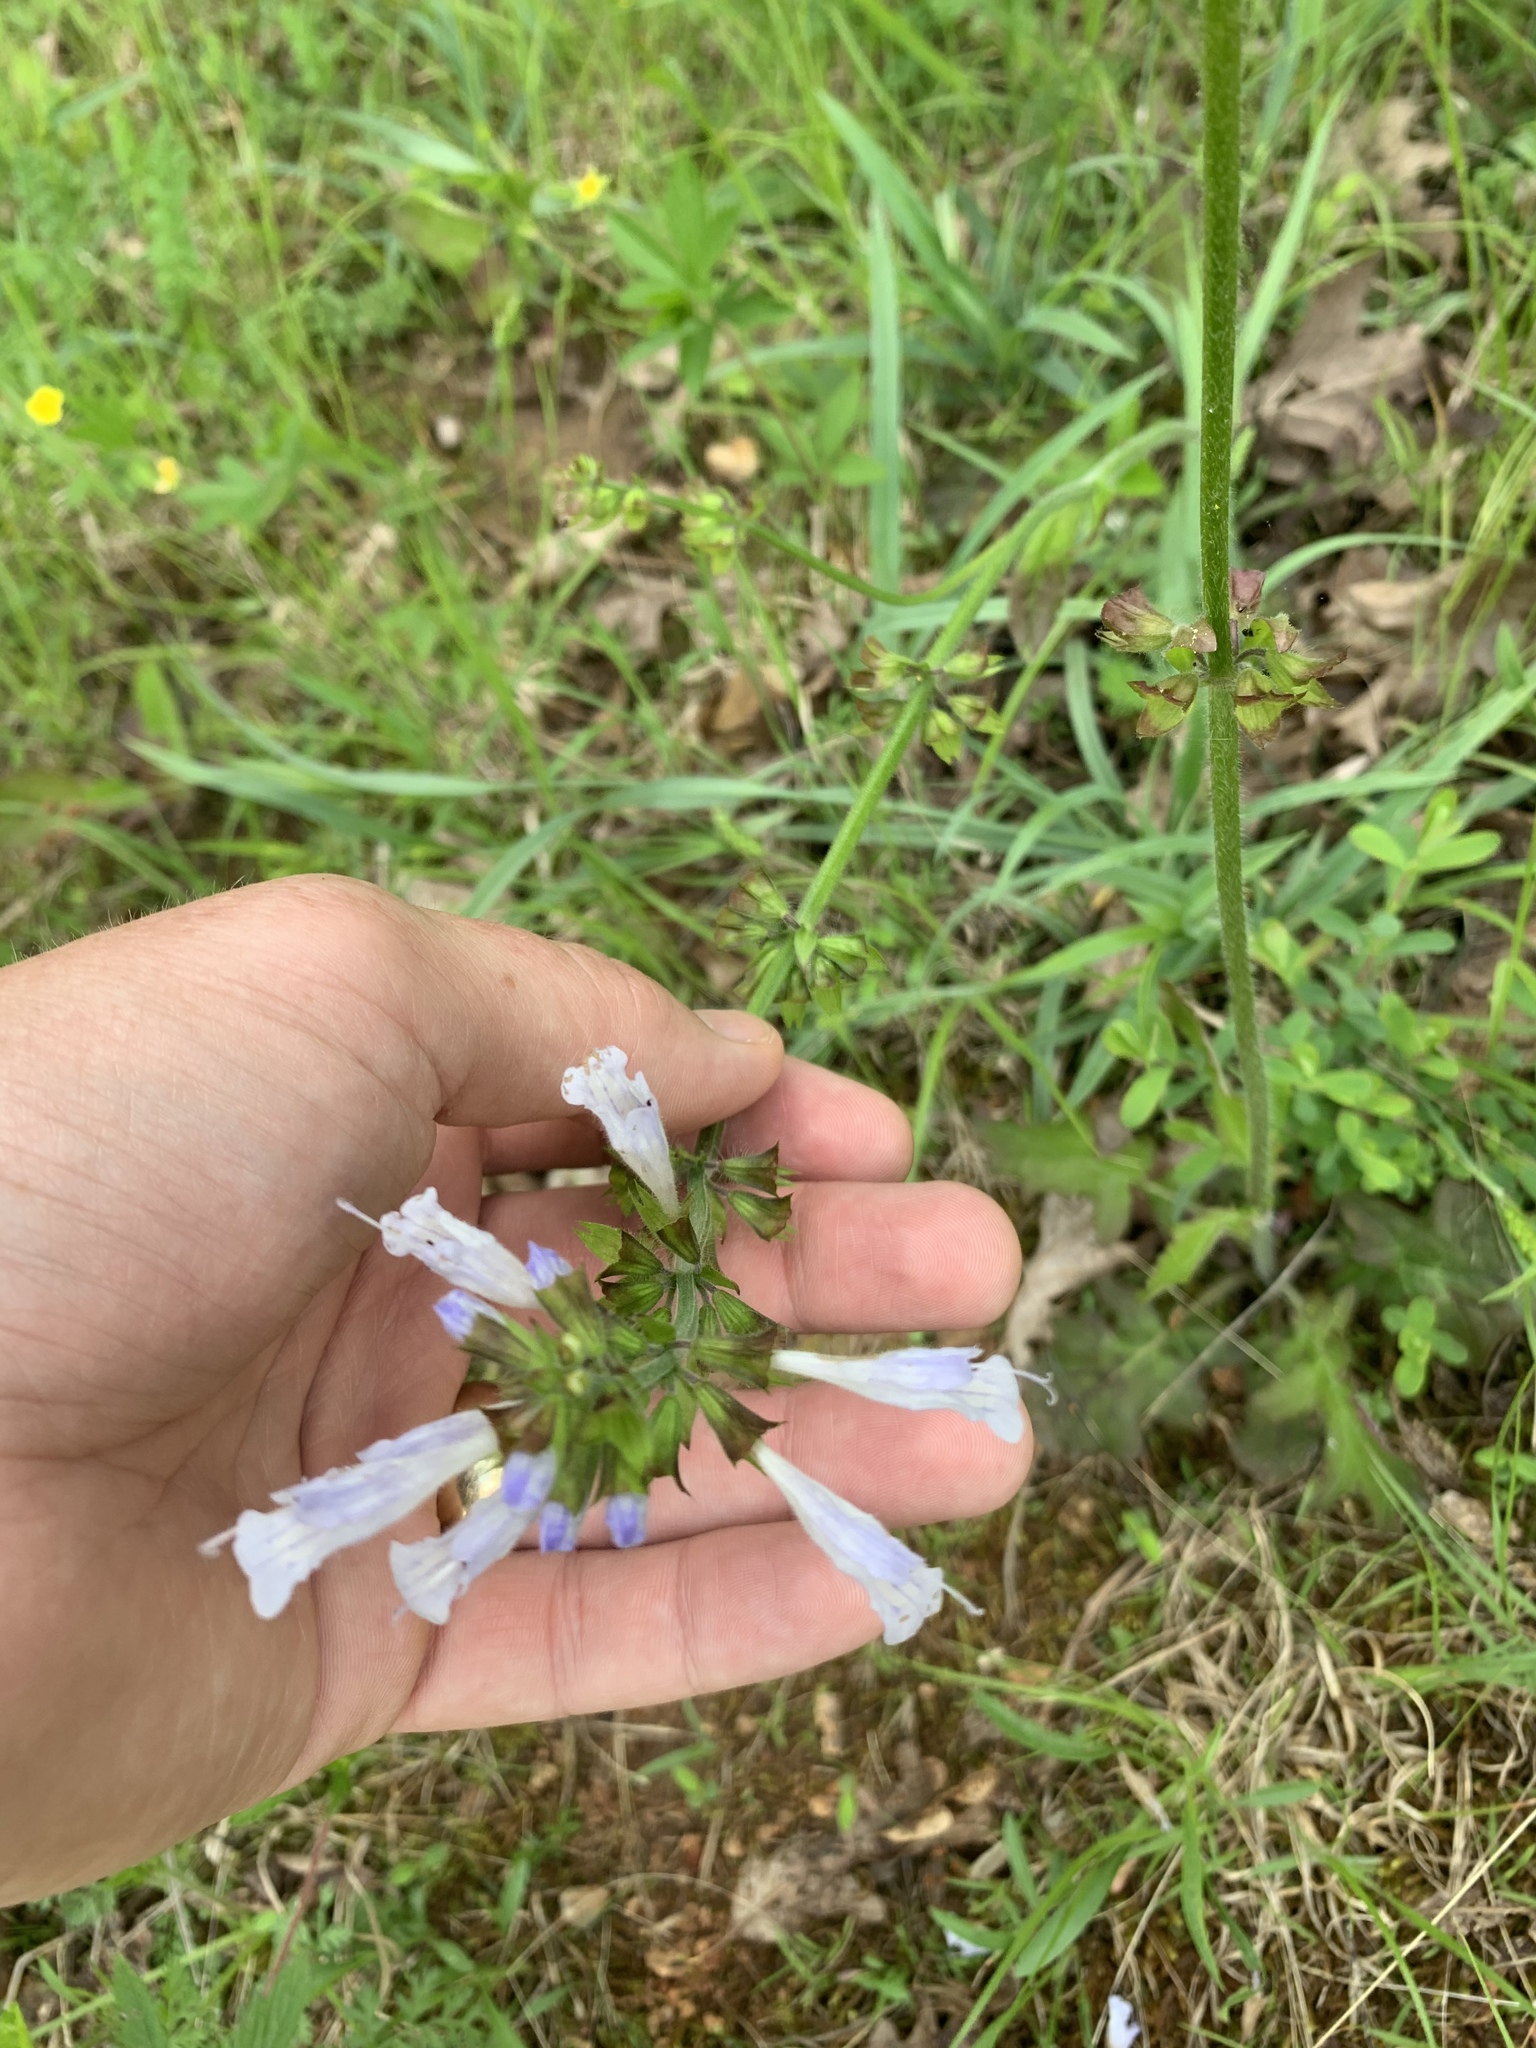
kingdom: Plantae
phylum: Tracheophyta
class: Magnoliopsida
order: Lamiales
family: Lamiaceae
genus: Salvia
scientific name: Salvia lyrata
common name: Cancerweed
